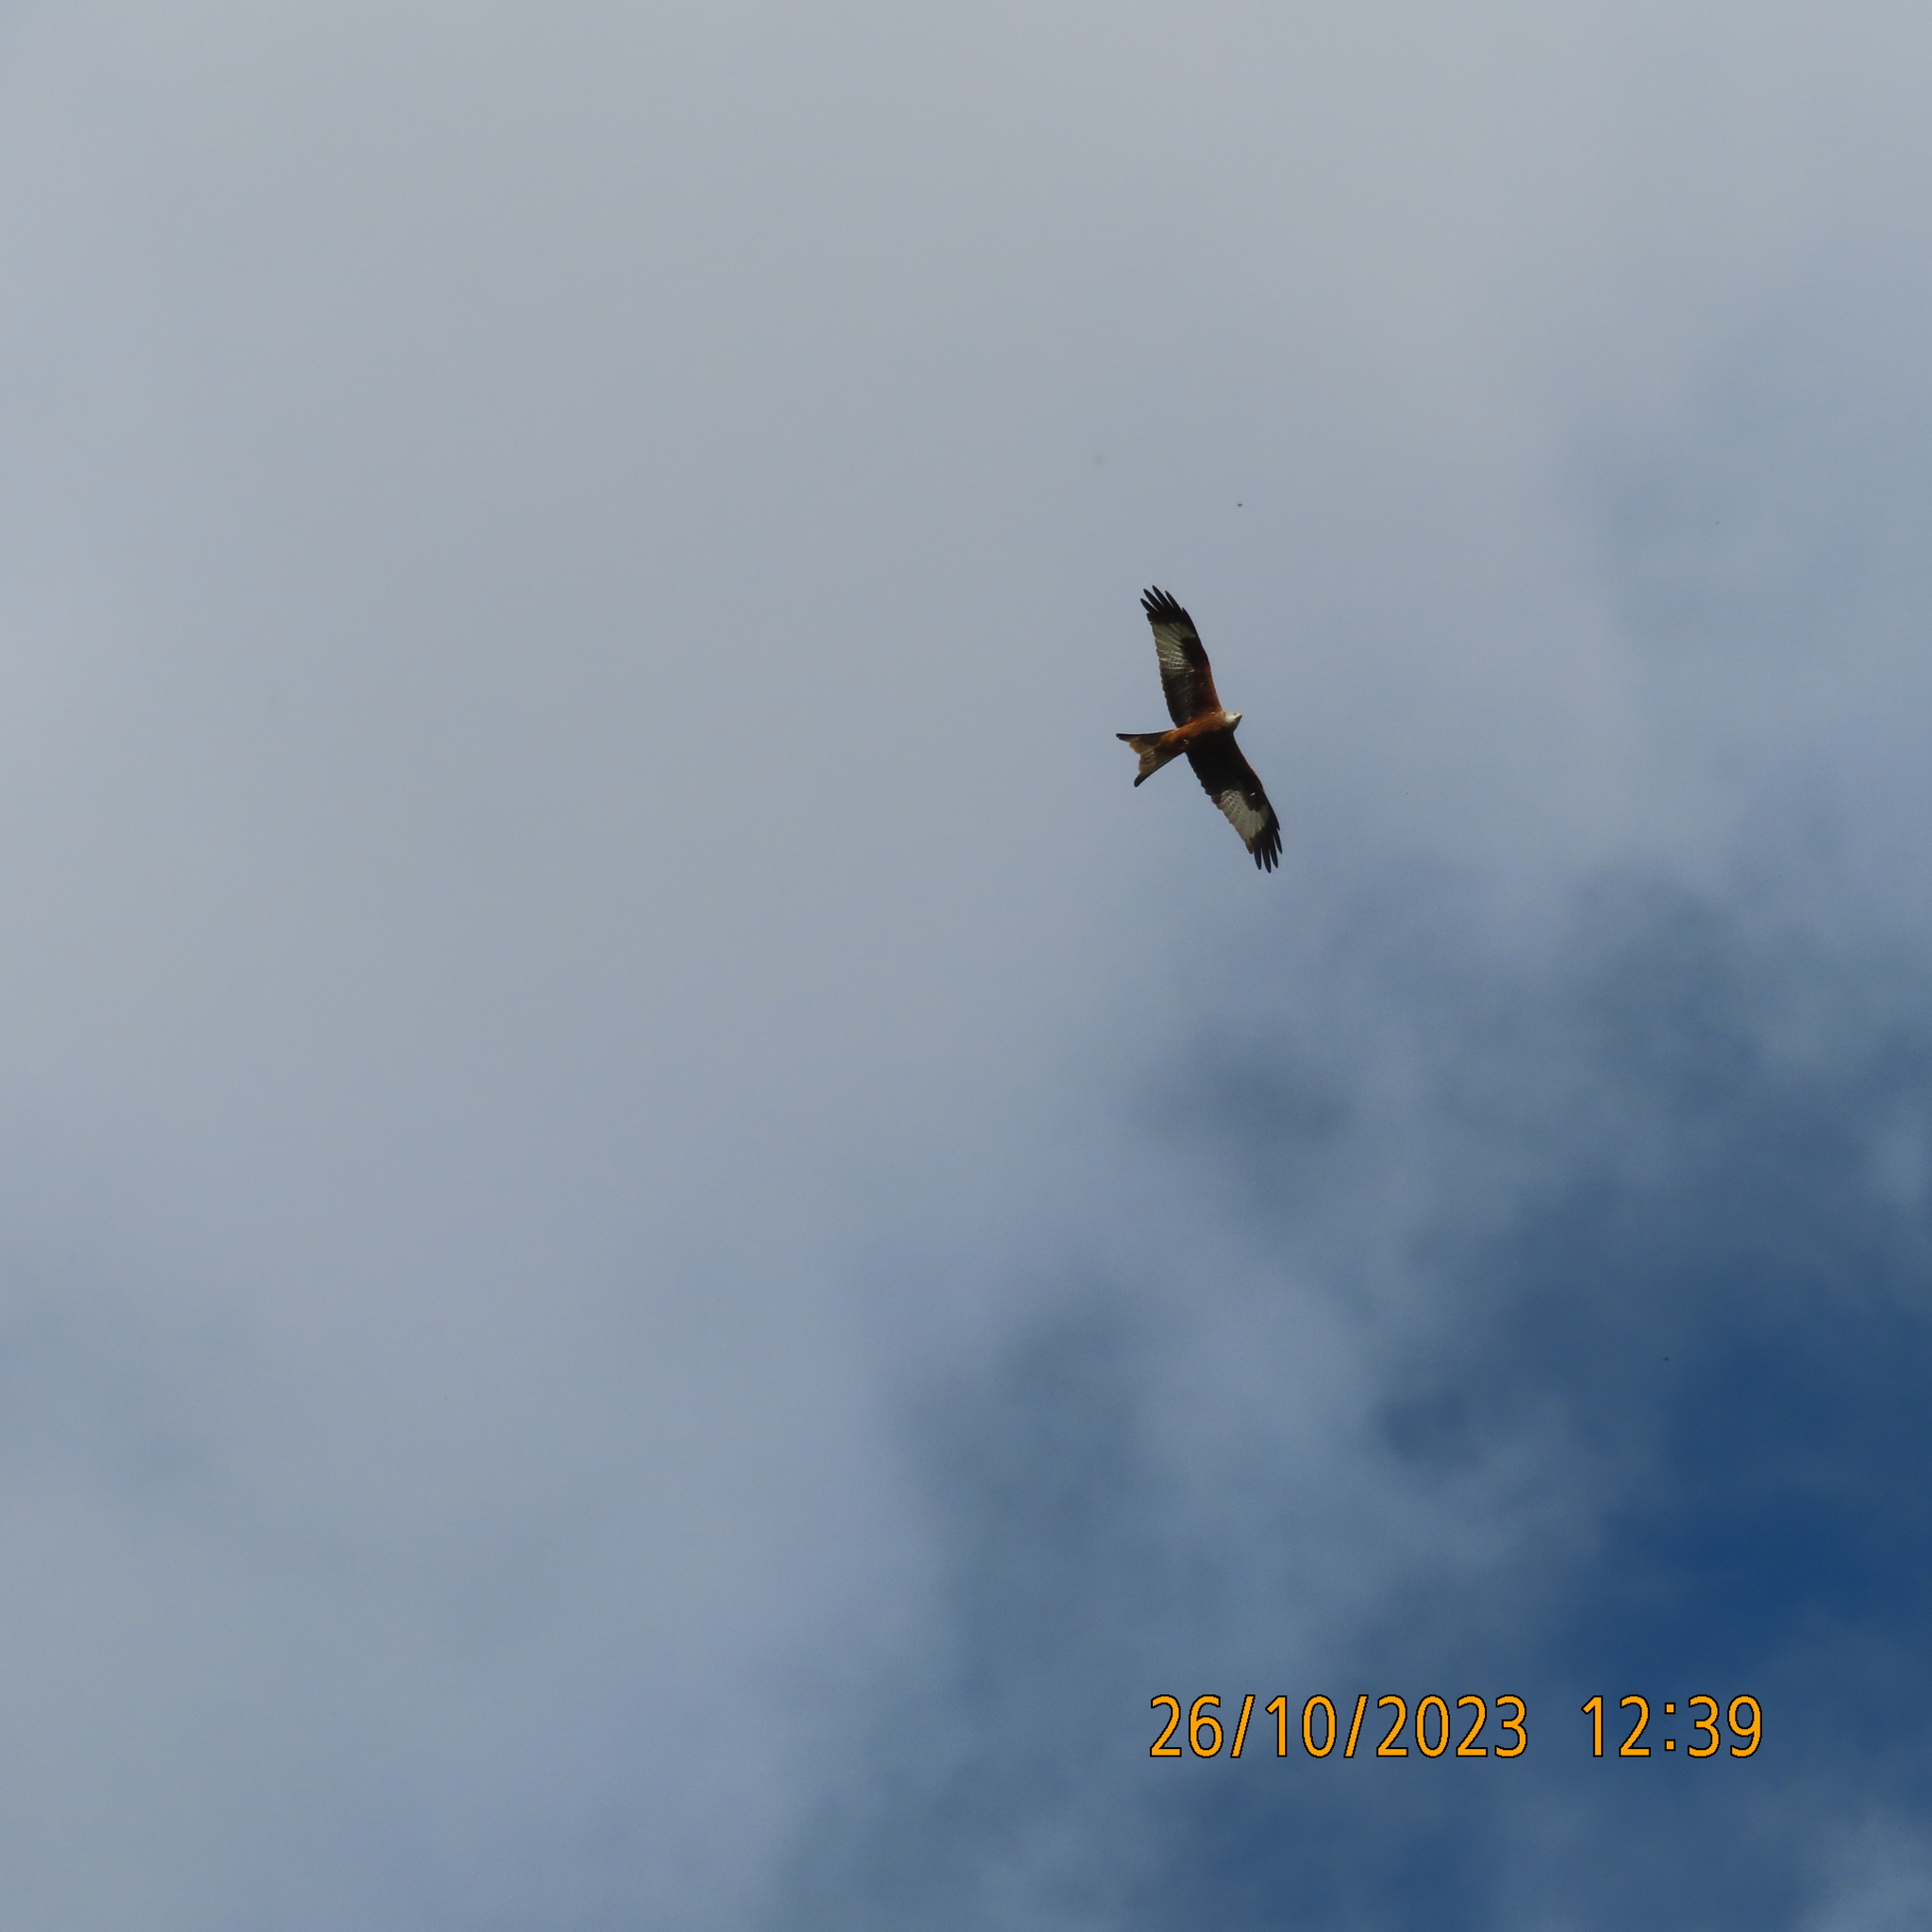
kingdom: Animalia
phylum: Chordata
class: Aves
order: Accipitriformes
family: Accipitridae
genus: Milvus
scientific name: Milvus milvus
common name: Red kite
